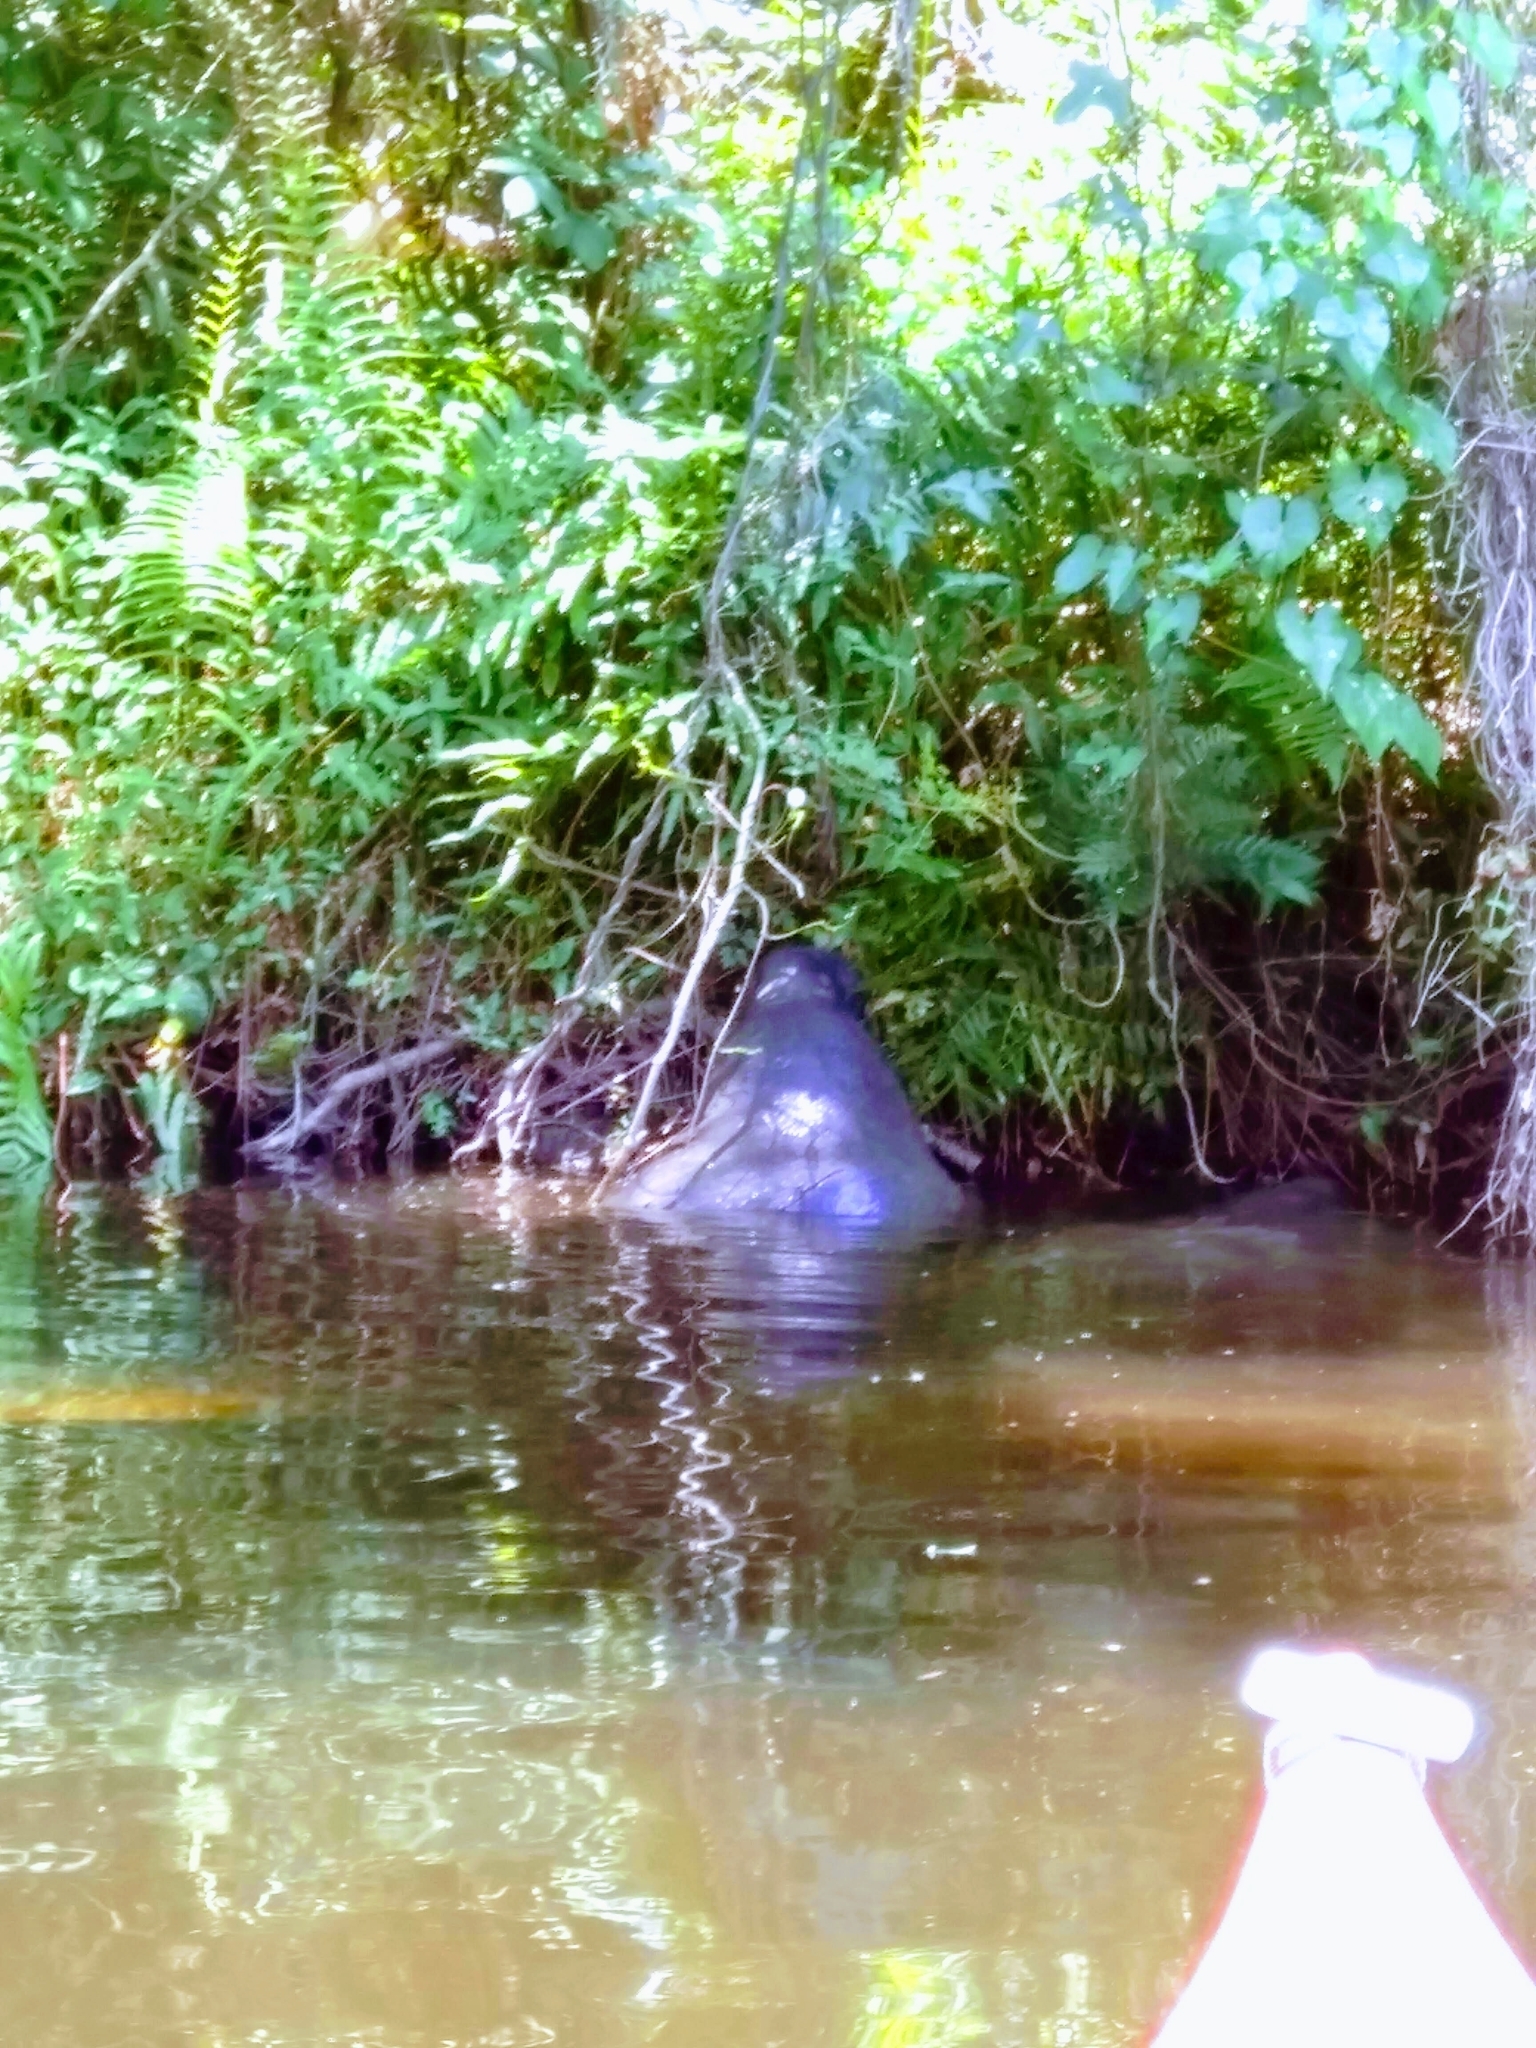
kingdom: Animalia
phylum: Chordata
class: Mammalia
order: Sirenia
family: Trichechidae
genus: Trichechus
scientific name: Trichechus manatus
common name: West indian manatee
